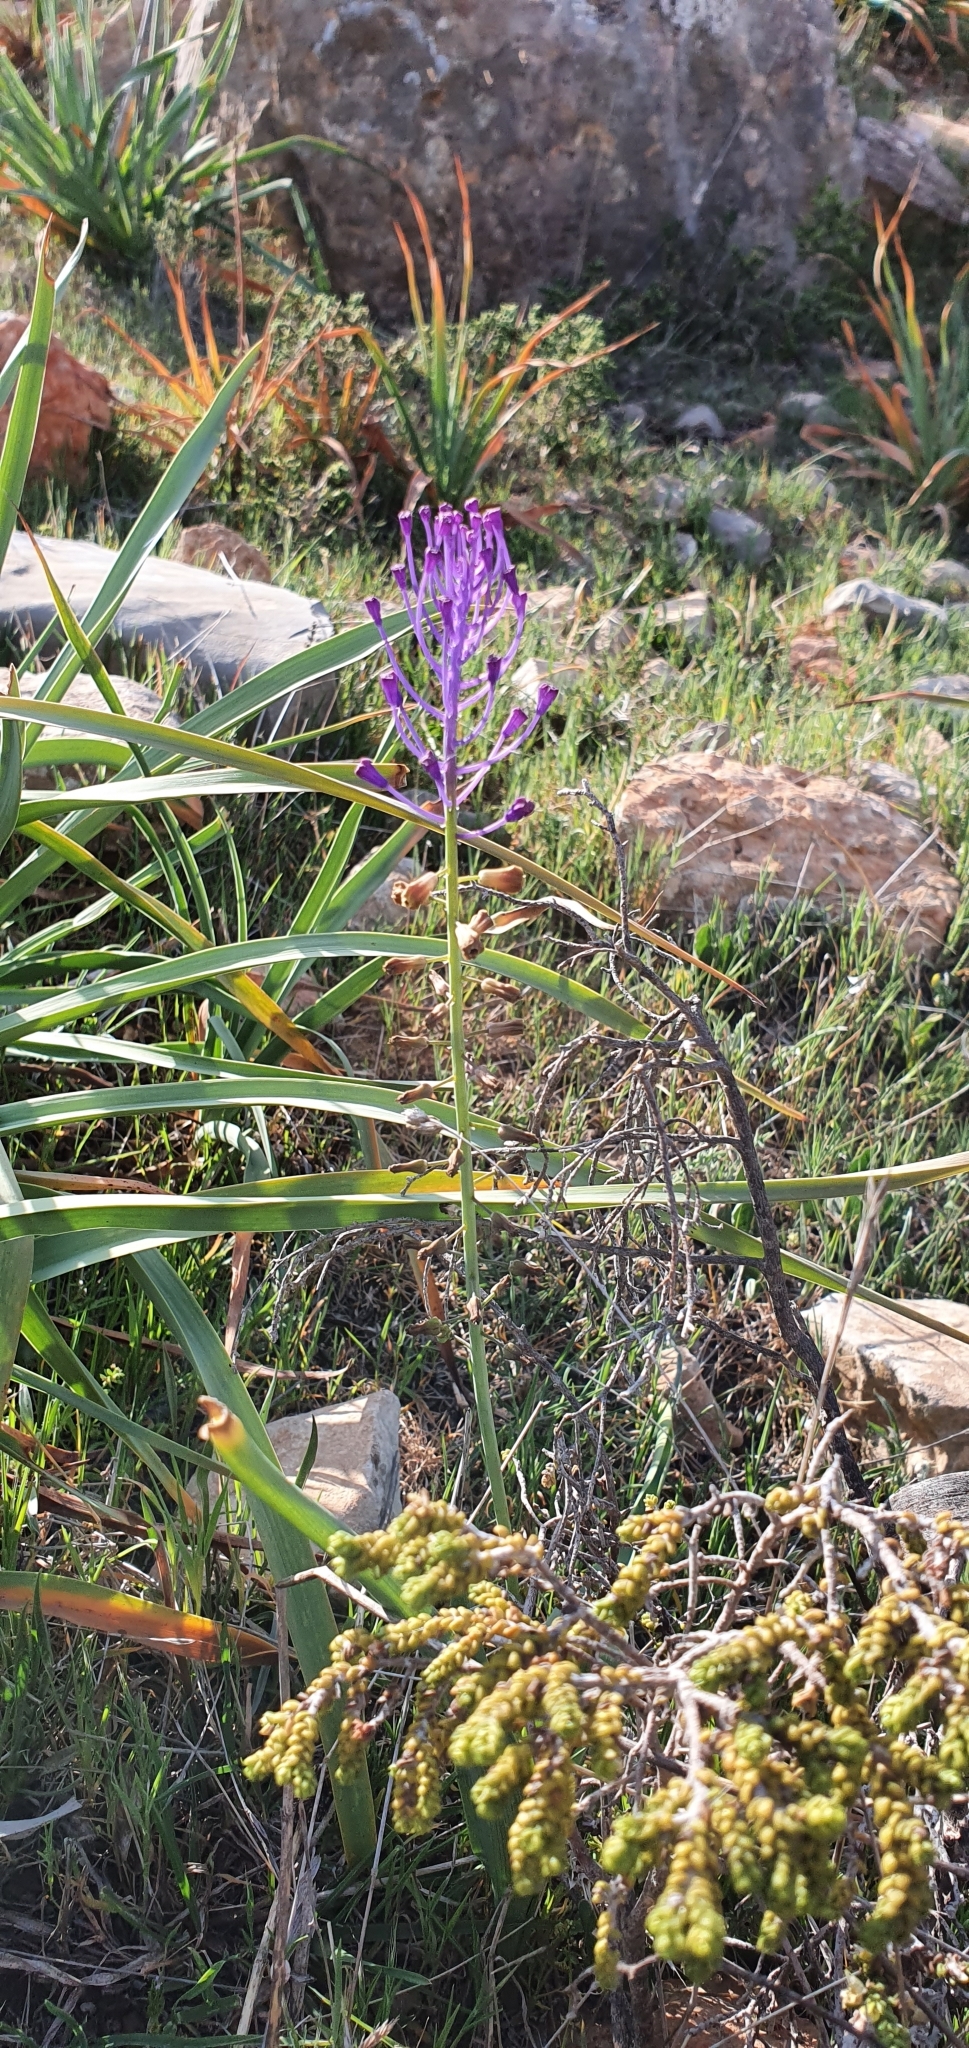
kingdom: Plantae
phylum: Tracheophyta
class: Liliopsida
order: Asparagales
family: Asparagaceae
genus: Muscari
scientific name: Muscari comosum
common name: Tassel hyacinth
